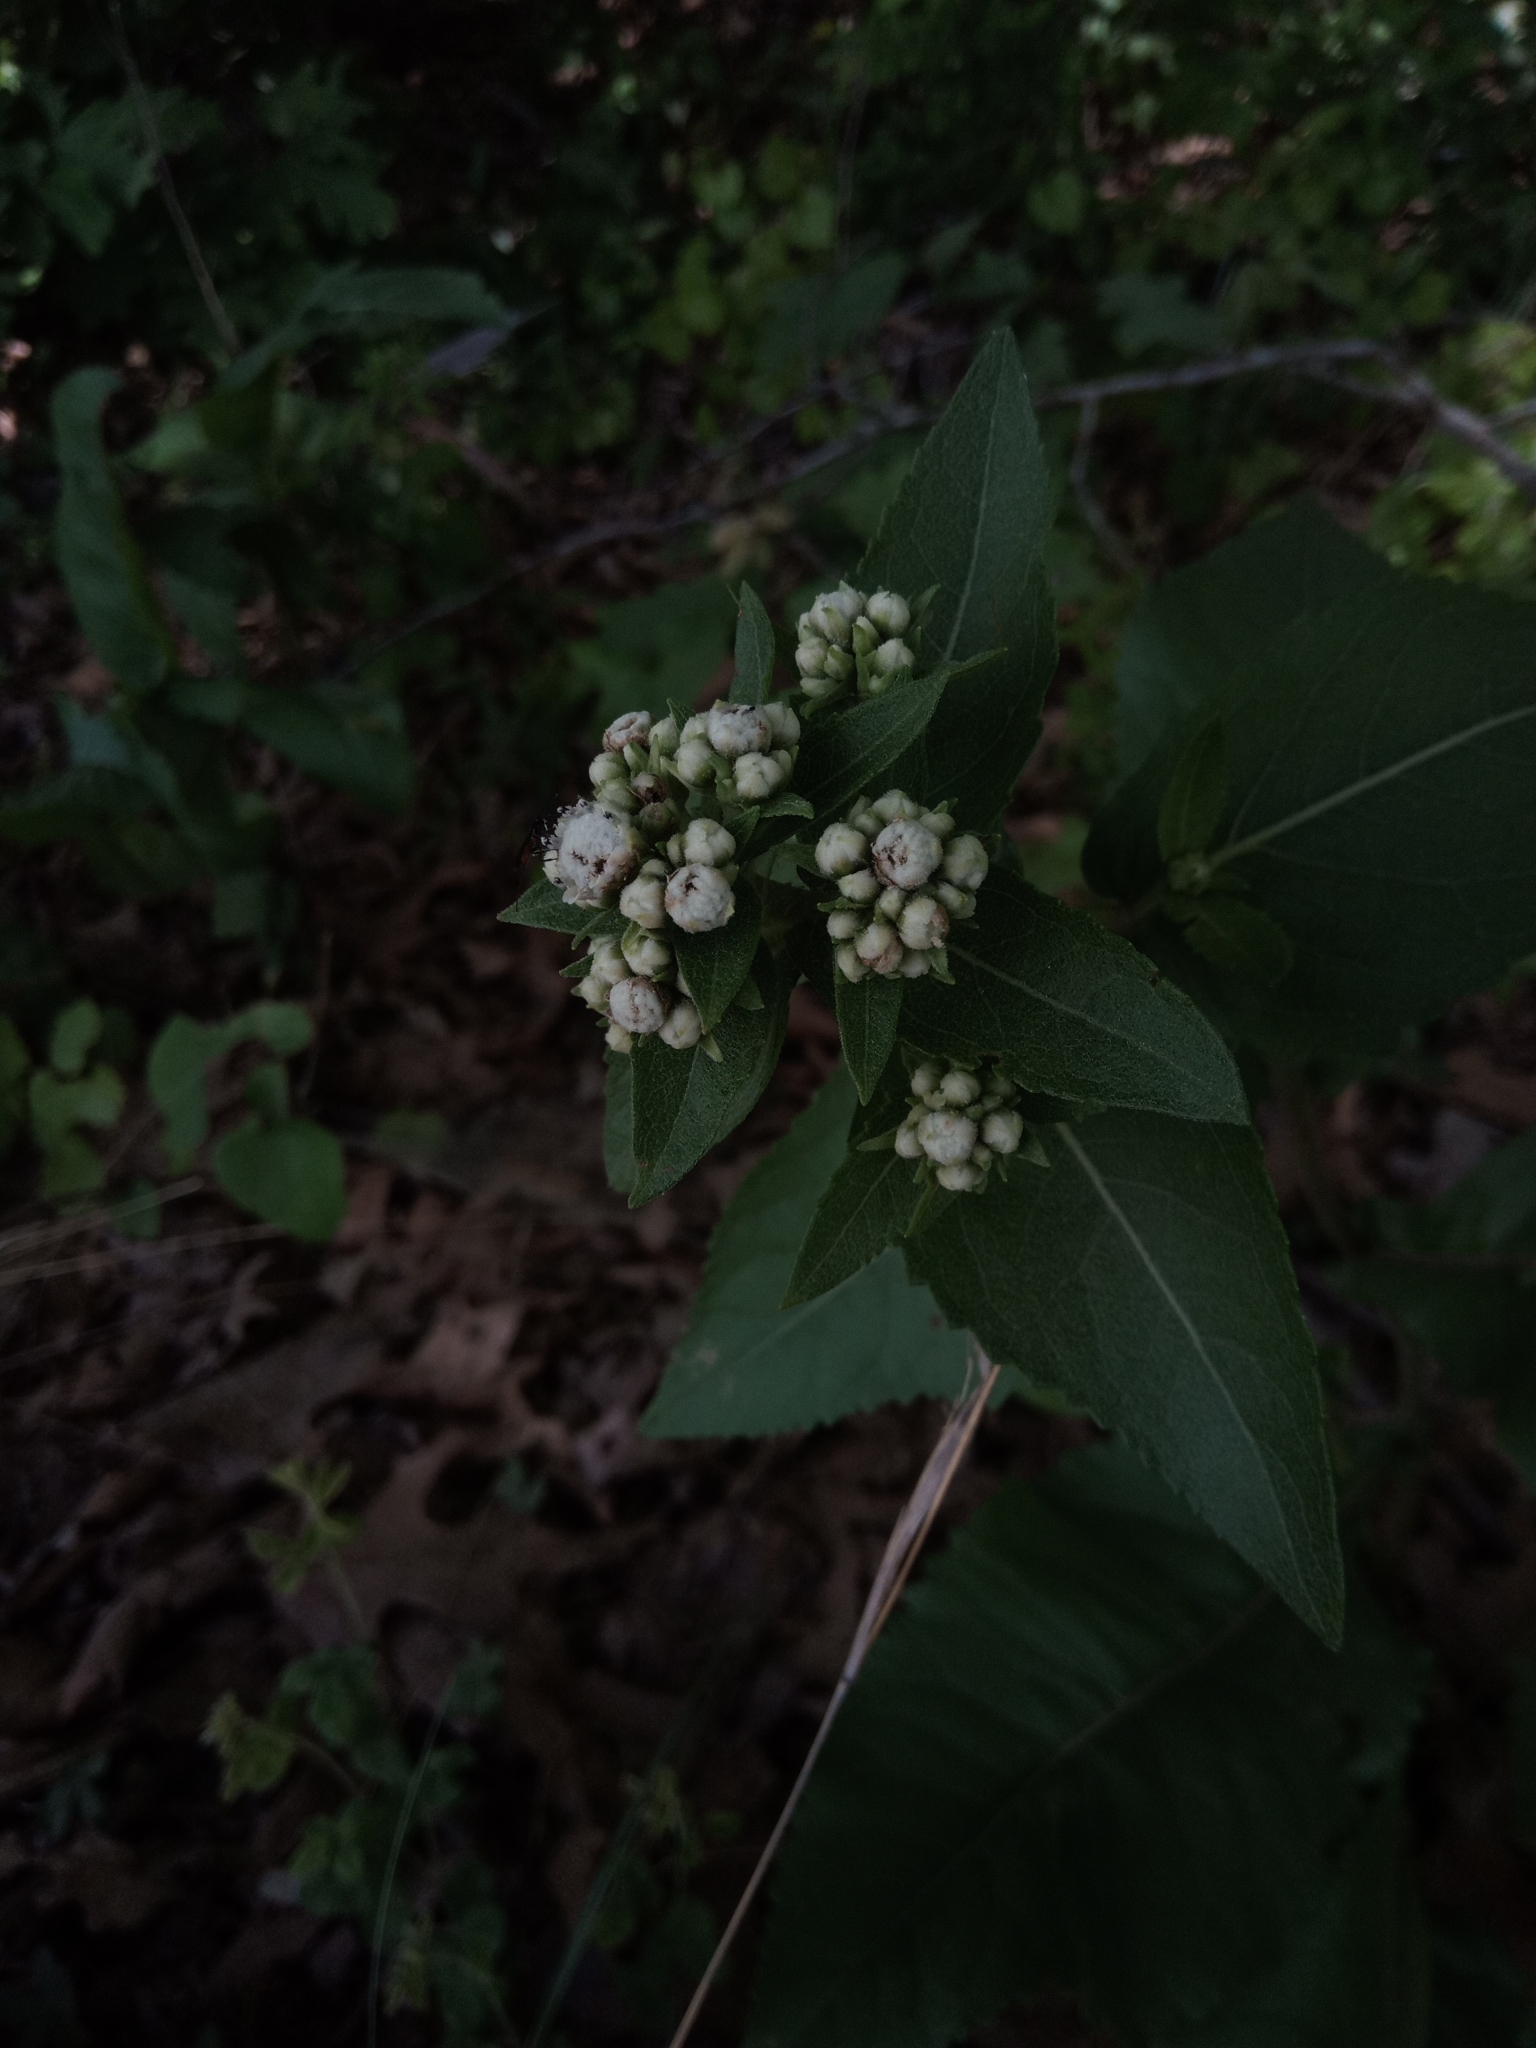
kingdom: Plantae
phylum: Tracheophyta
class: Magnoliopsida
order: Asterales
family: Asteraceae
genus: Parthenium
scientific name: Parthenium integrifolium
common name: American feverfew
